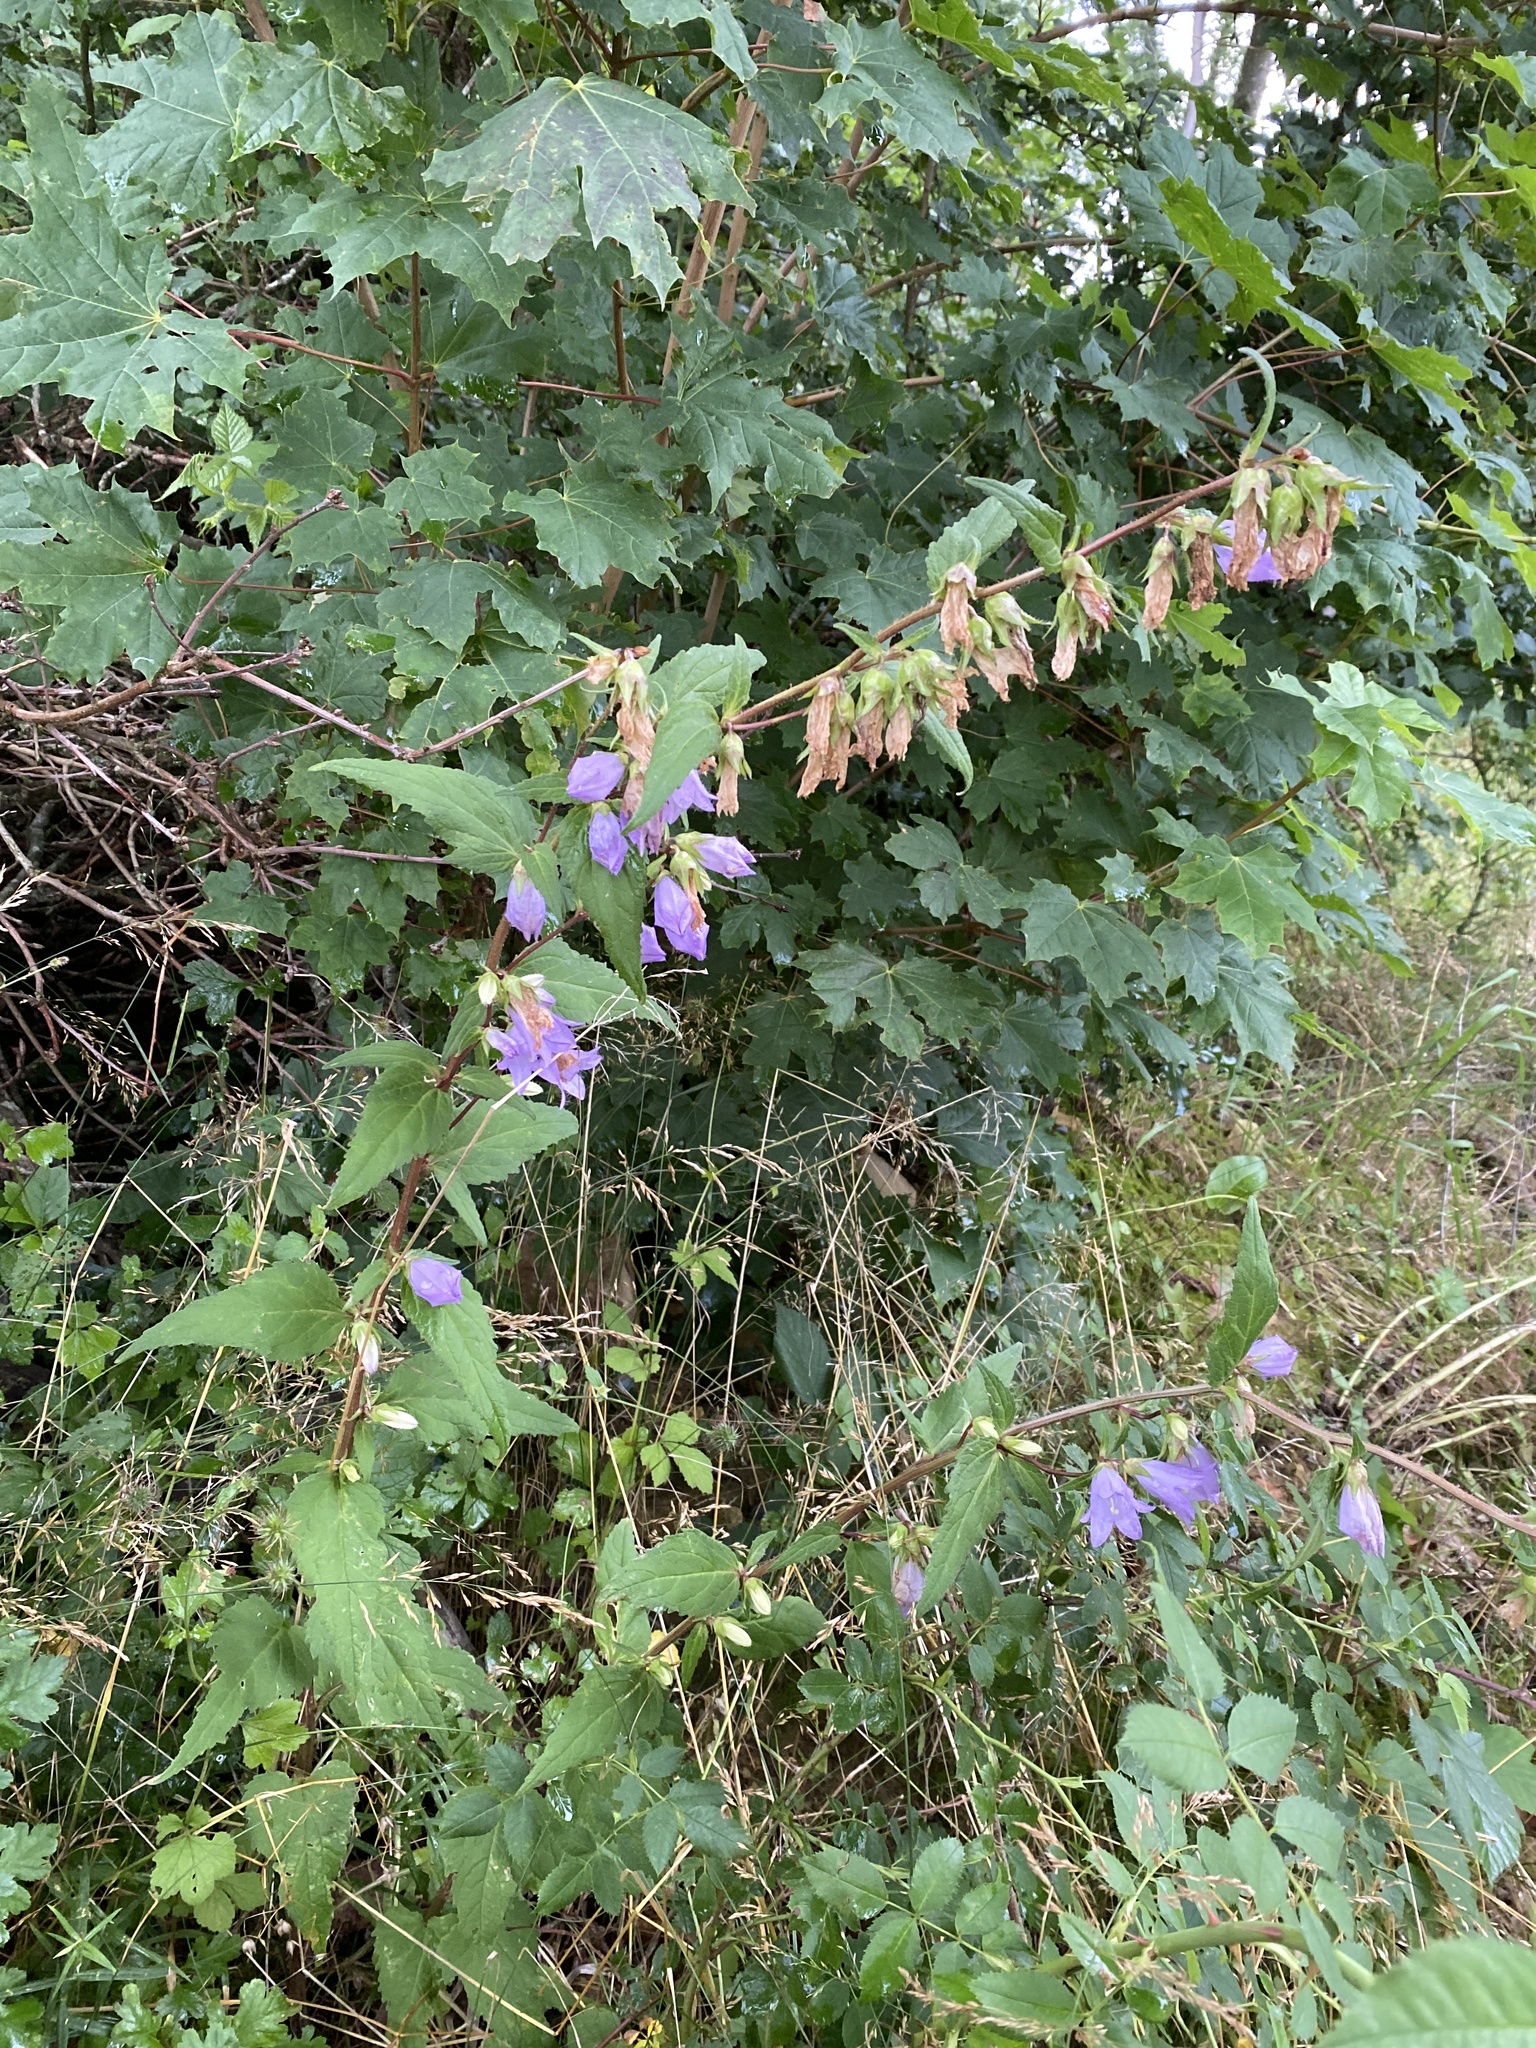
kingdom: Plantae
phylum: Tracheophyta
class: Magnoliopsida
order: Asterales
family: Campanulaceae
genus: Campanula
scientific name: Campanula trachelium
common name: Nettle-leaved bellflower
